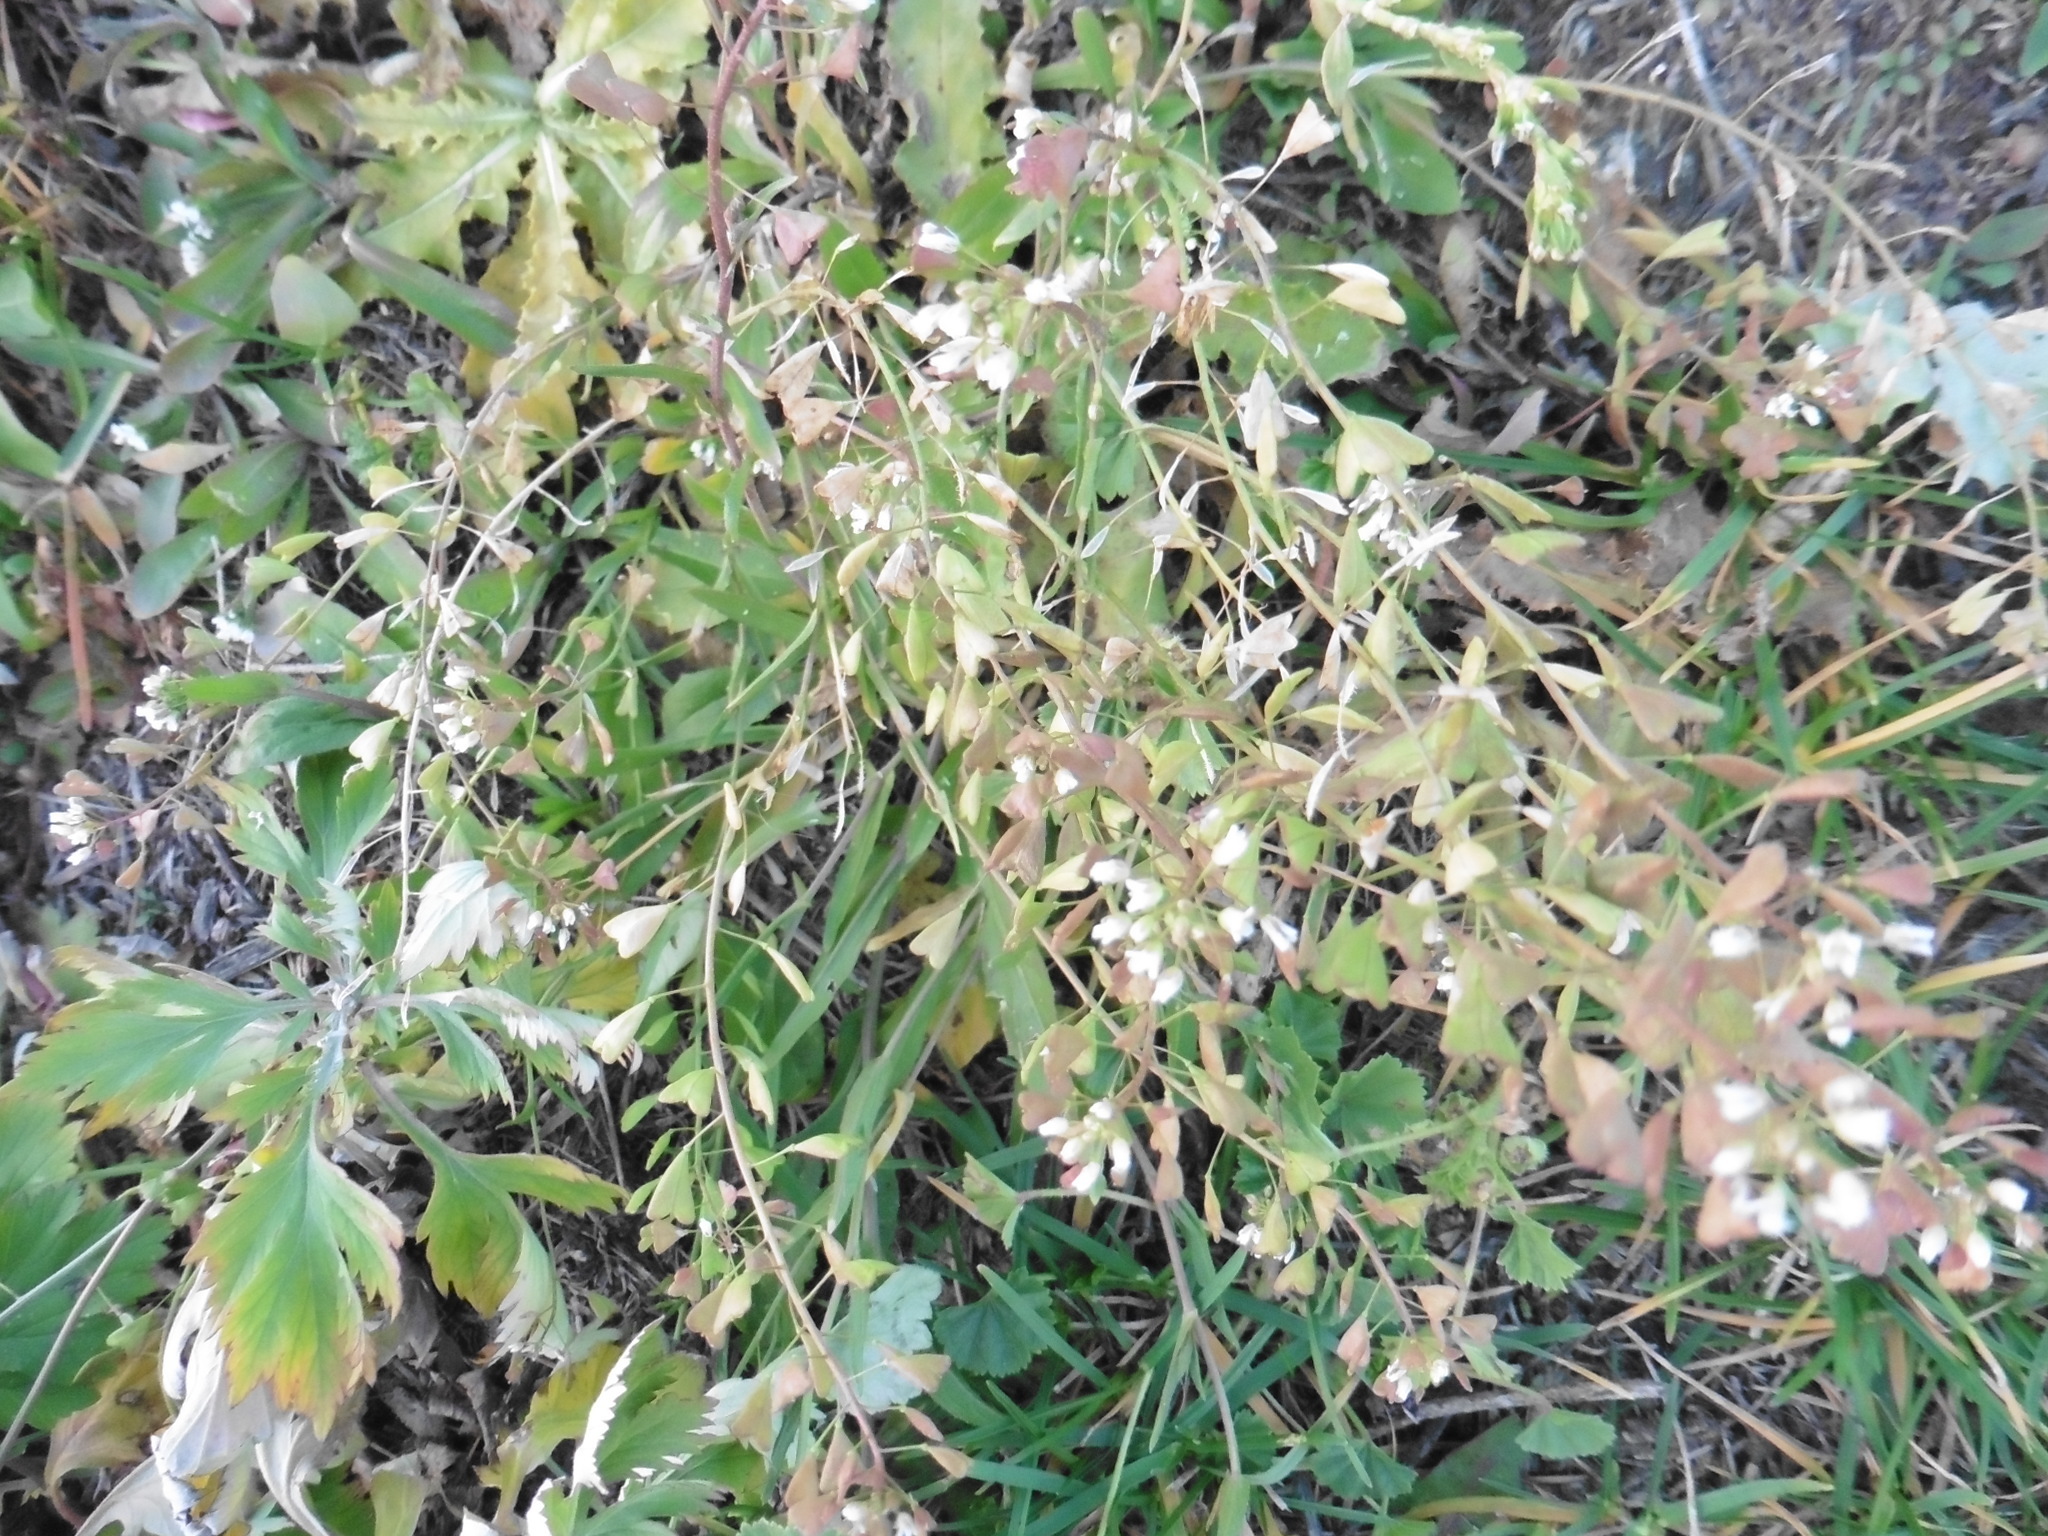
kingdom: Plantae
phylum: Tracheophyta
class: Magnoliopsida
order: Brassicales
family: Brassicaceae
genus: Capsella
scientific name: Capsella bursa-pastoris
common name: Shepherd's purse
